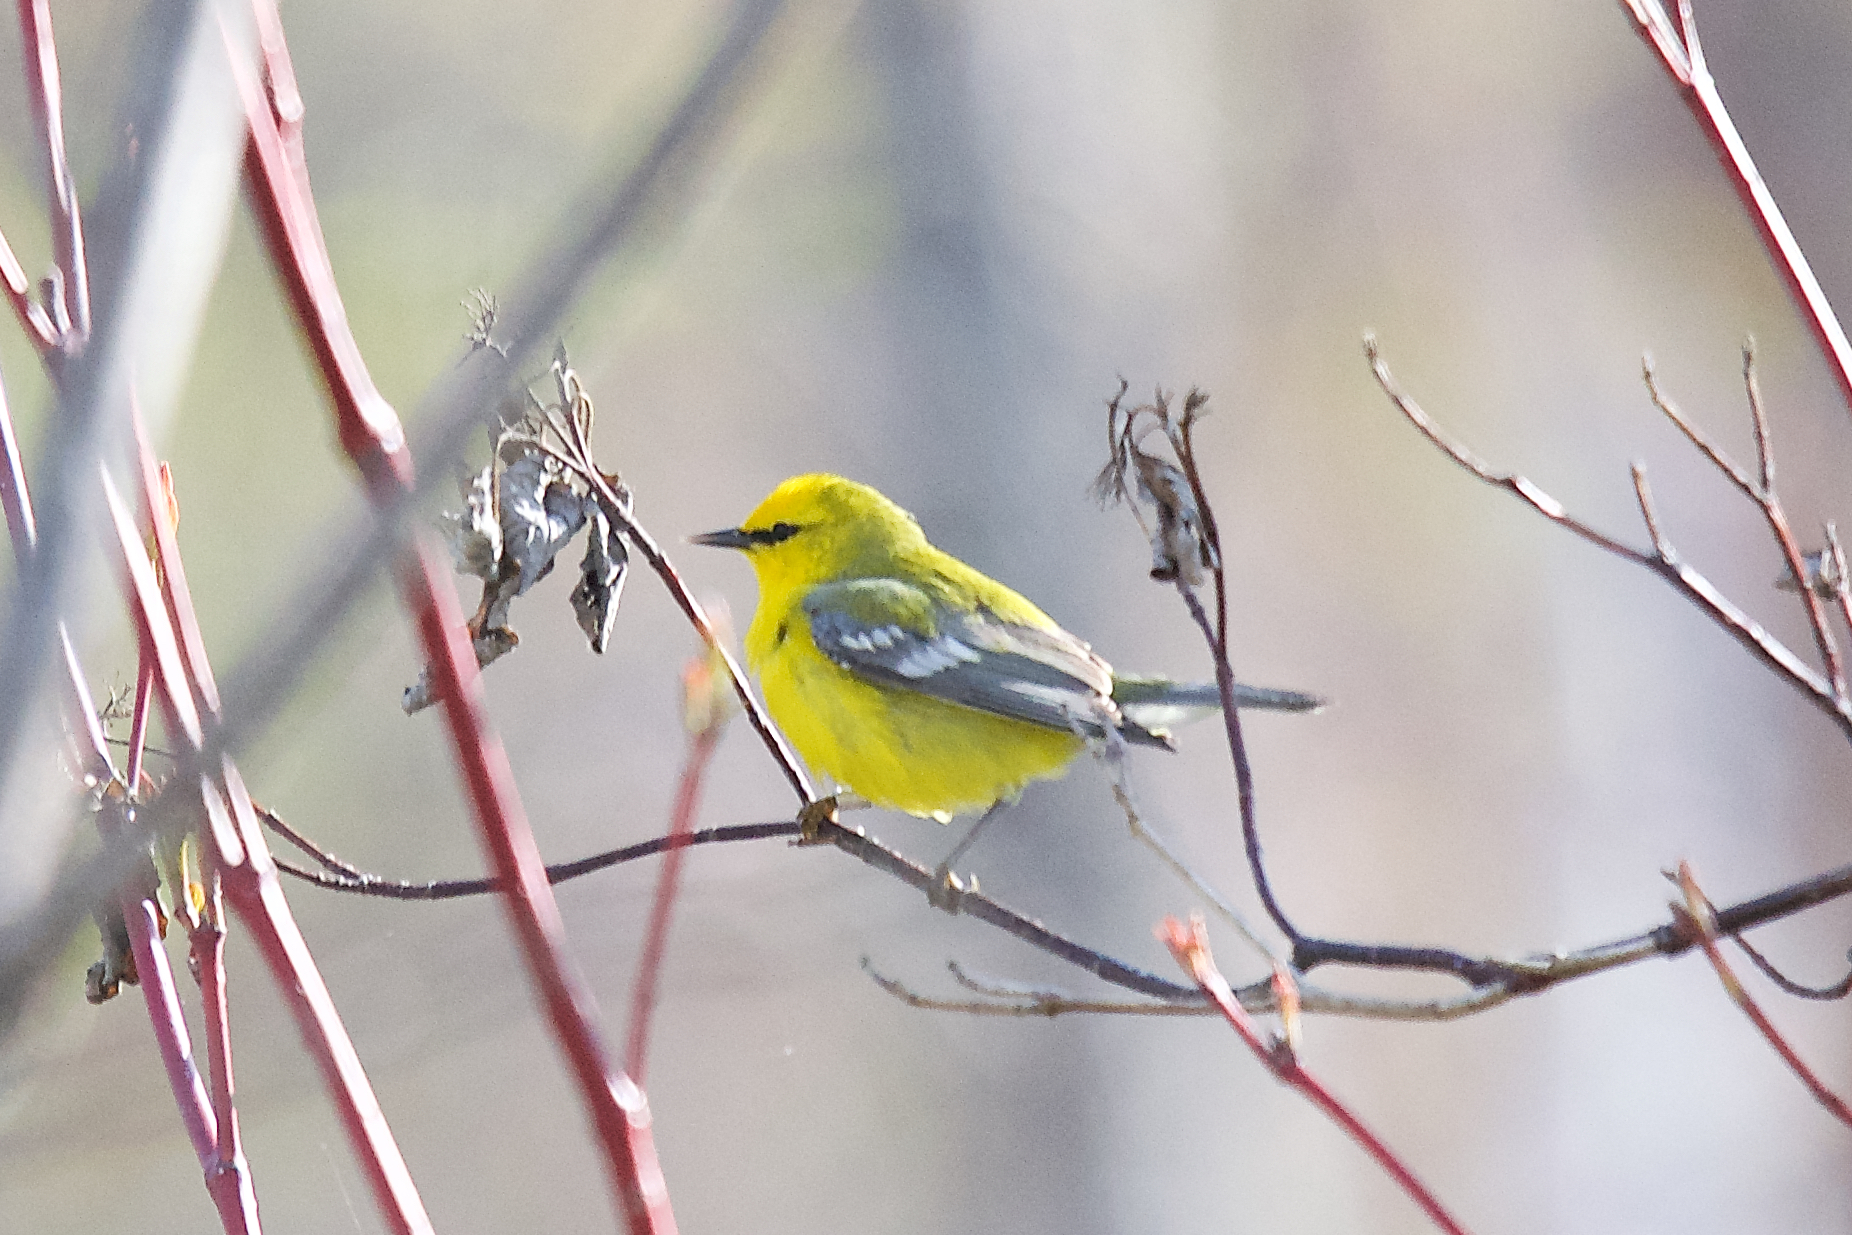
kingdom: Animalia
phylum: Chordata
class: Aves
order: Passeriformes
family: Parulidae
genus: Vermivora
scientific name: Vermivora cyanoptera
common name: Blue-winged warbler
